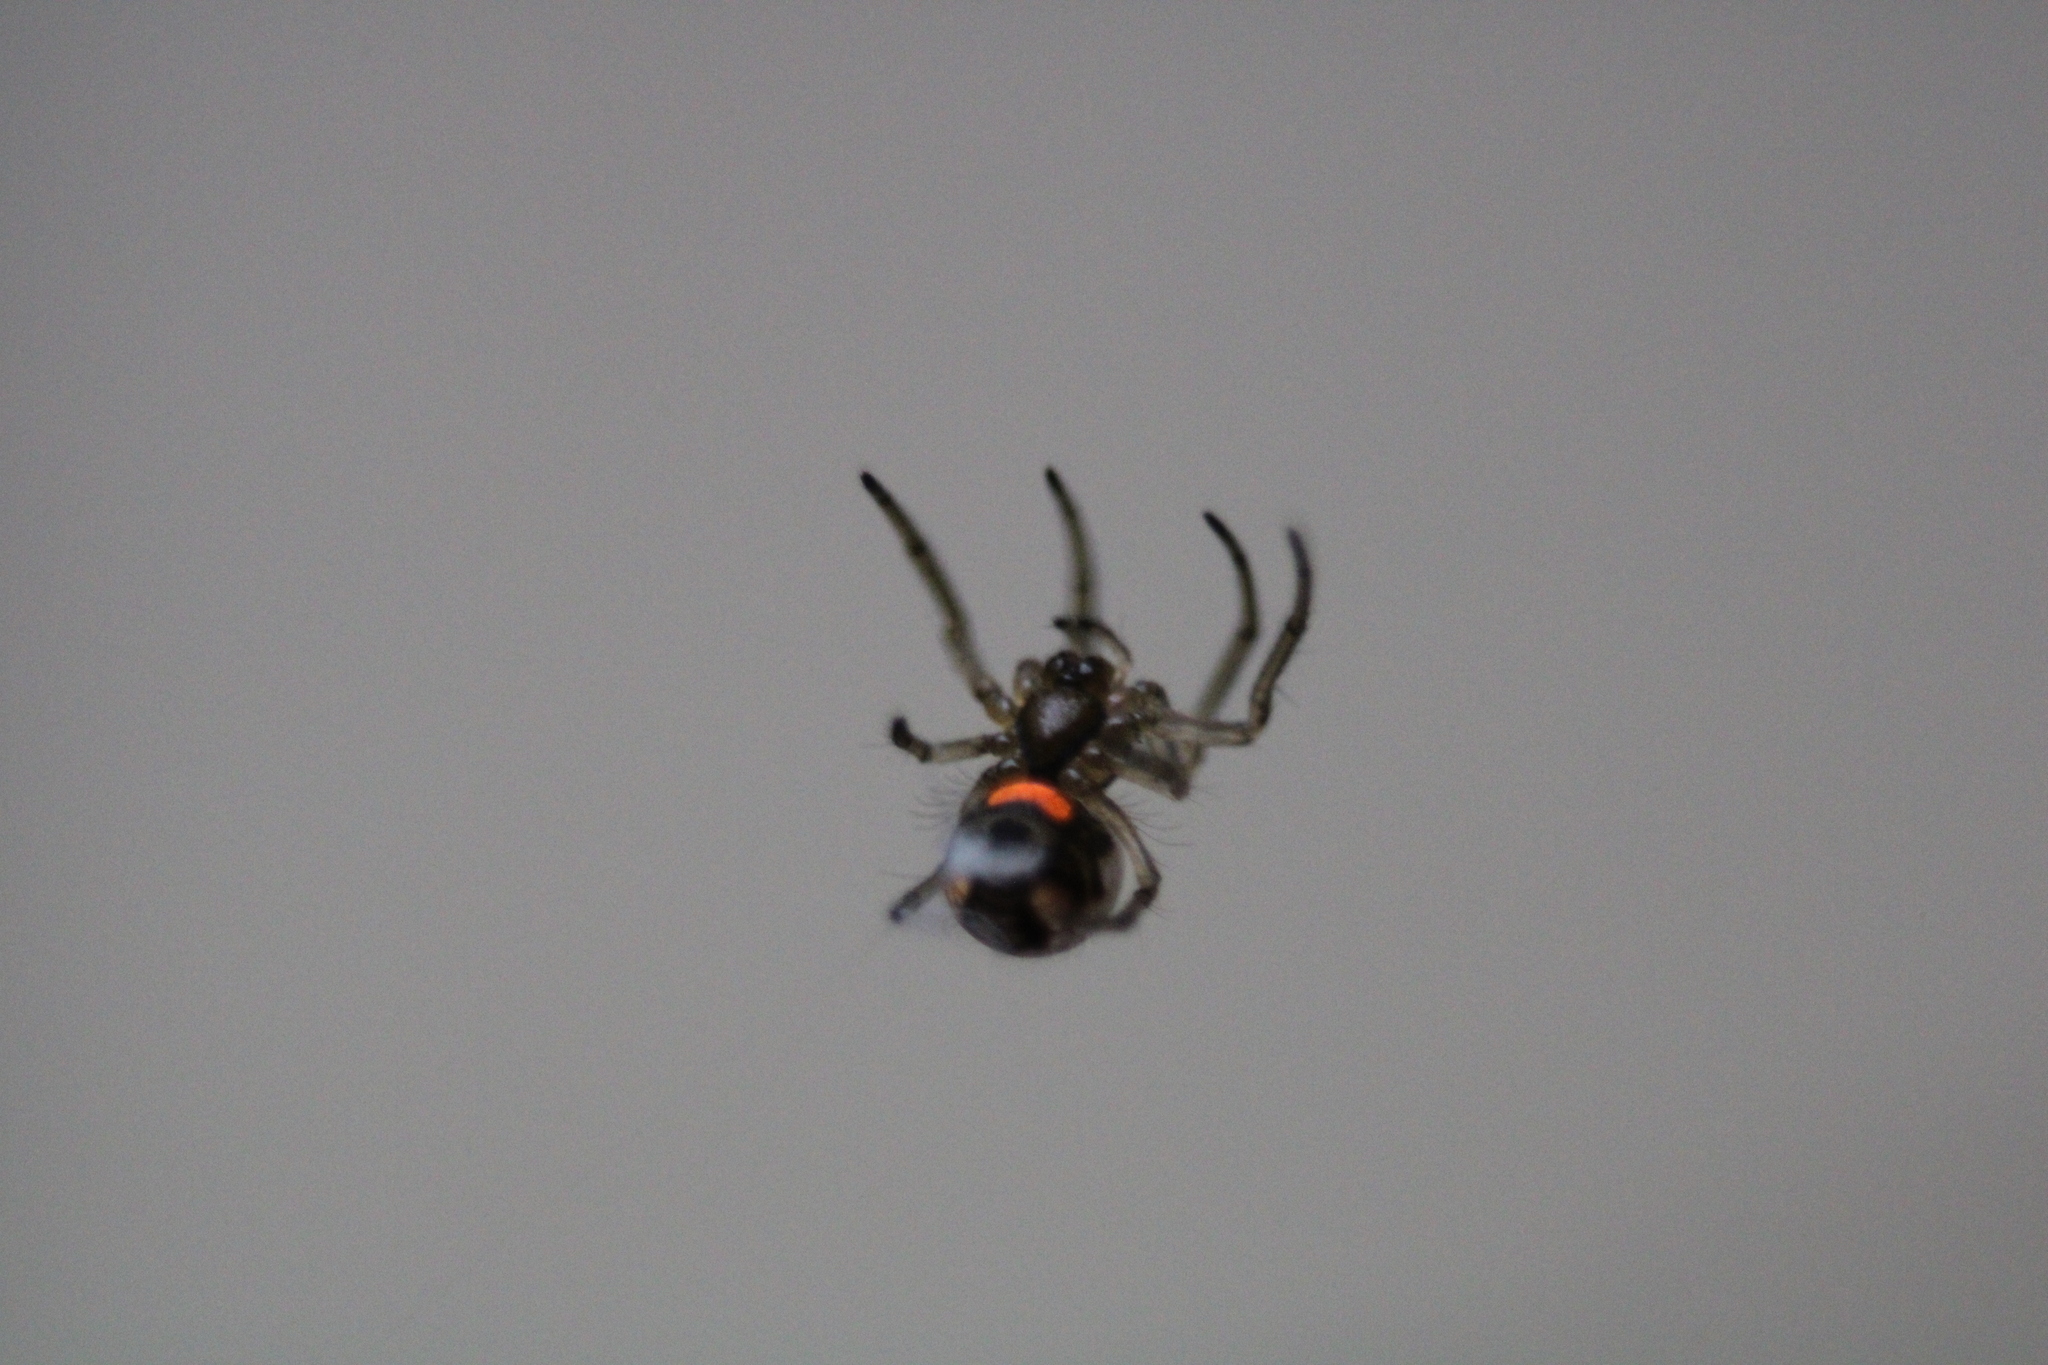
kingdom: Animalia
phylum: Arthropoda
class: Arachnida
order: Araneae
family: Tetragnathidae
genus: Leucauge
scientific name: Leucauge venusta
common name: Longjawed orb weavers
